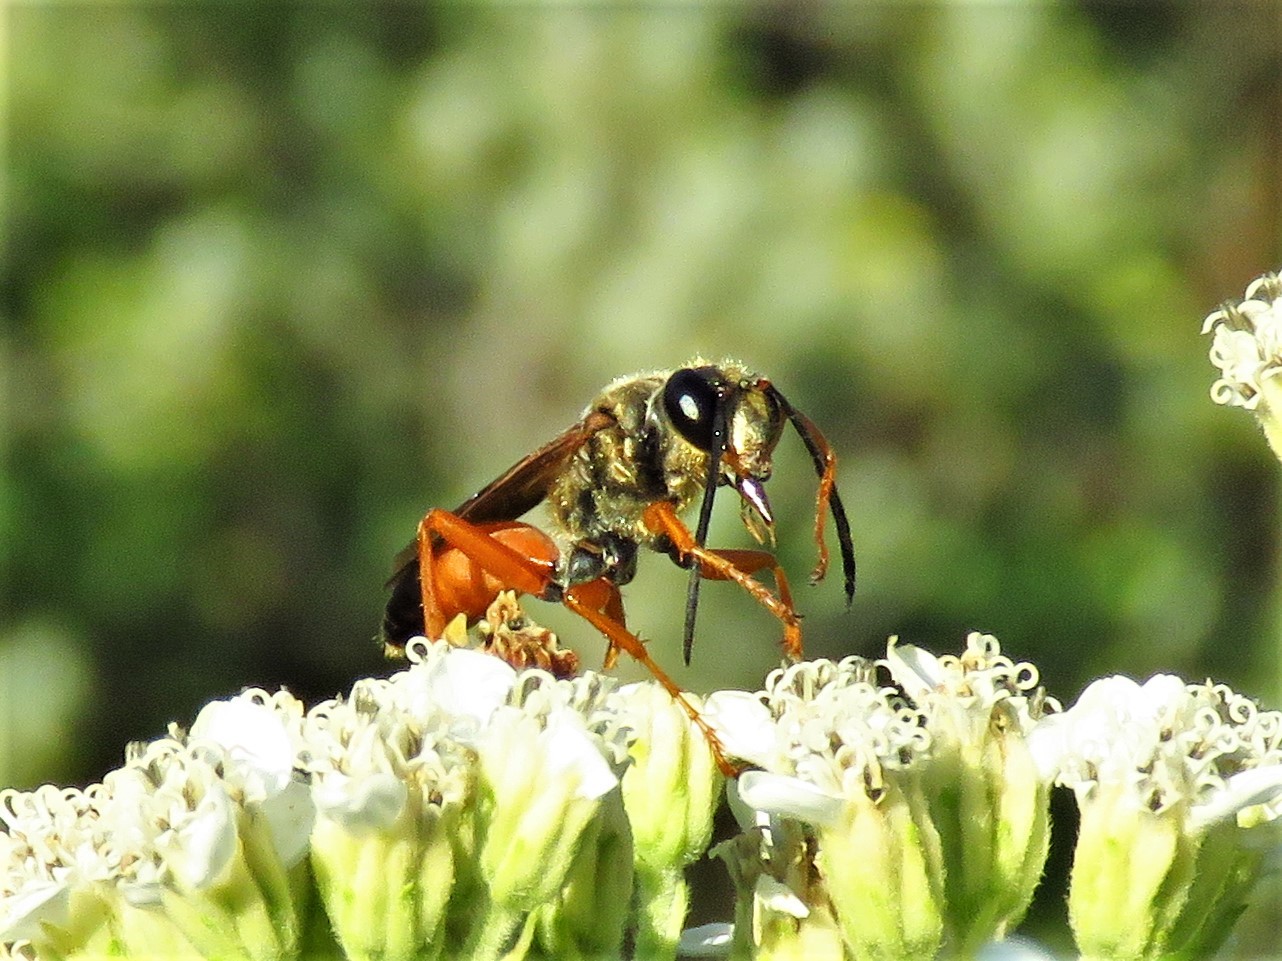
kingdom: Animalia
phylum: Arthropoda
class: Insecta
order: Hymenoptera
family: Sphecidae
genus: Sphex
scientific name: Sphex ichneumoneus
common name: Great golden digger wasp
